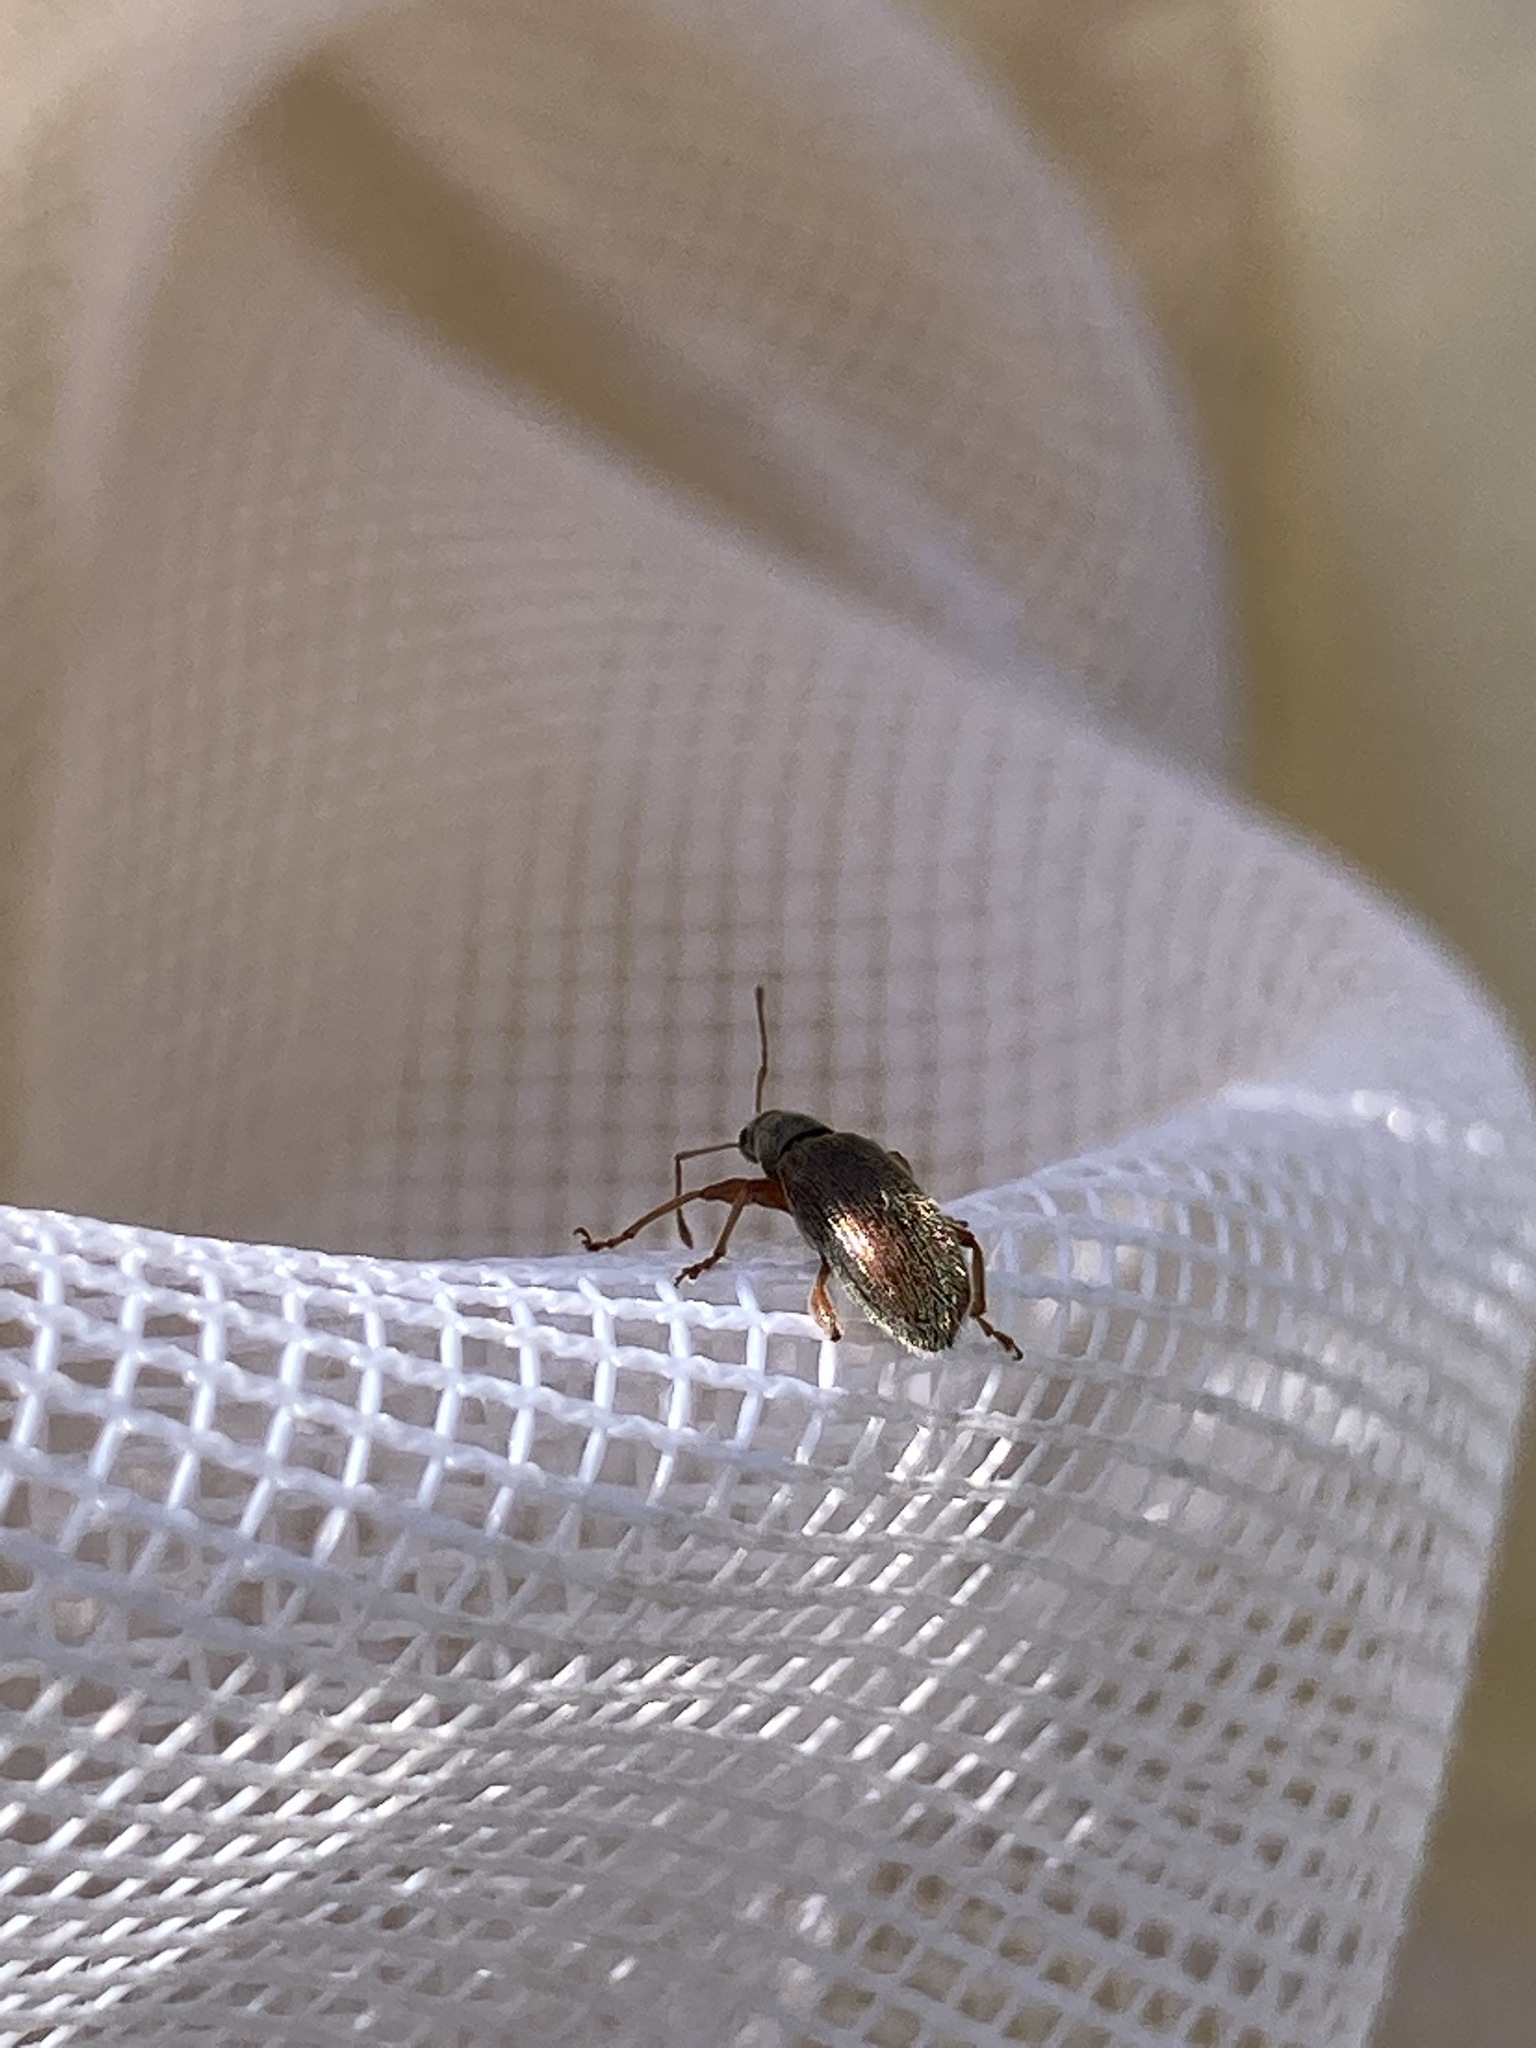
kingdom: Animalia
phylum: Arthropoda
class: Insecta
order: Coleoptera
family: Curculionidae
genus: Phyllobius
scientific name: Phyllobius oblongus
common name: Brown leaf weevil
